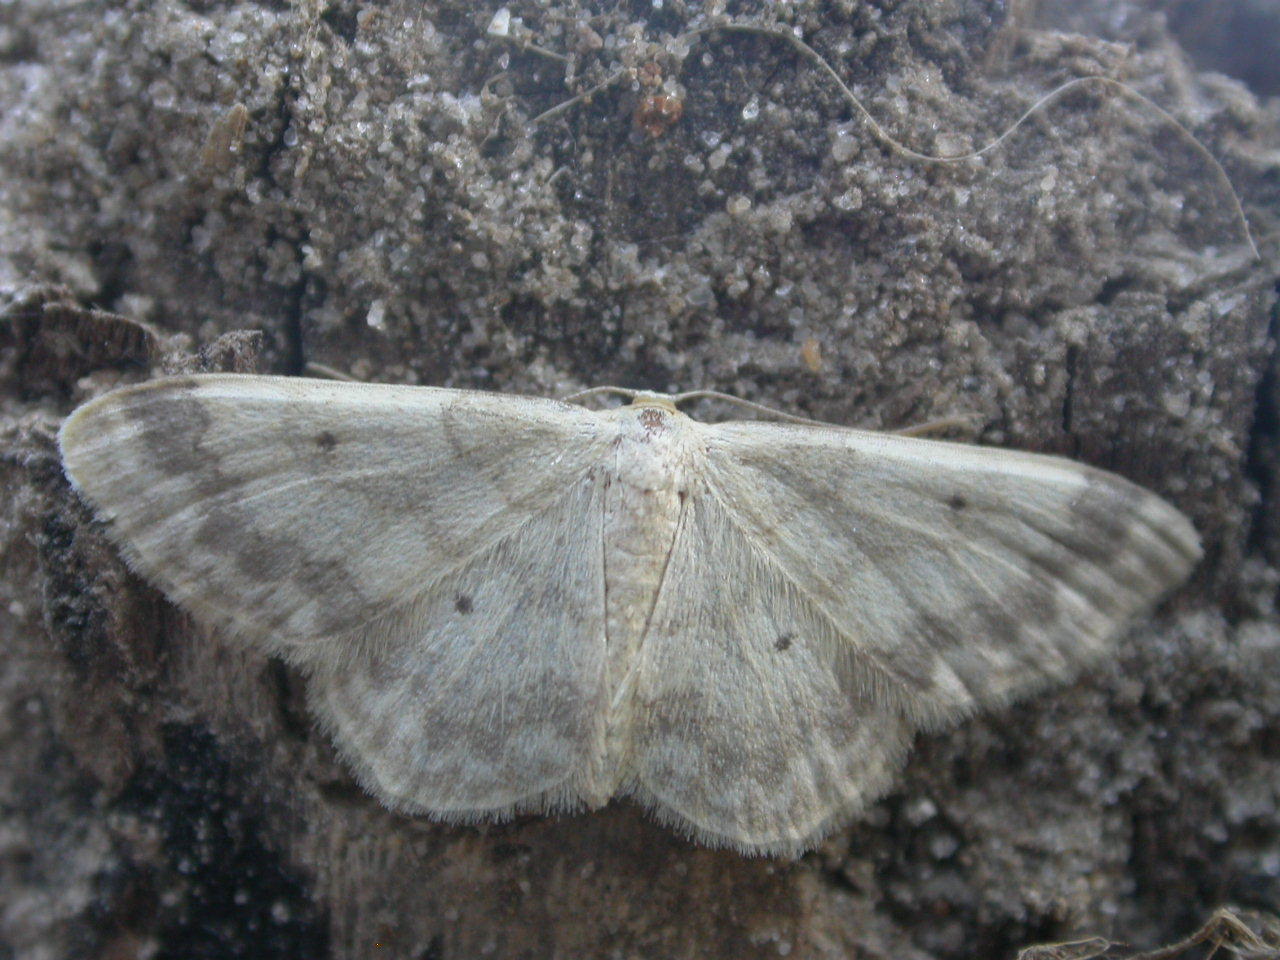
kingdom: Animalia
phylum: Arthropoda
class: Insecta
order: Lepidoptera
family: Geometridae
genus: Idaea
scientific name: Idaea biselata
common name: Small fan-footed wave
